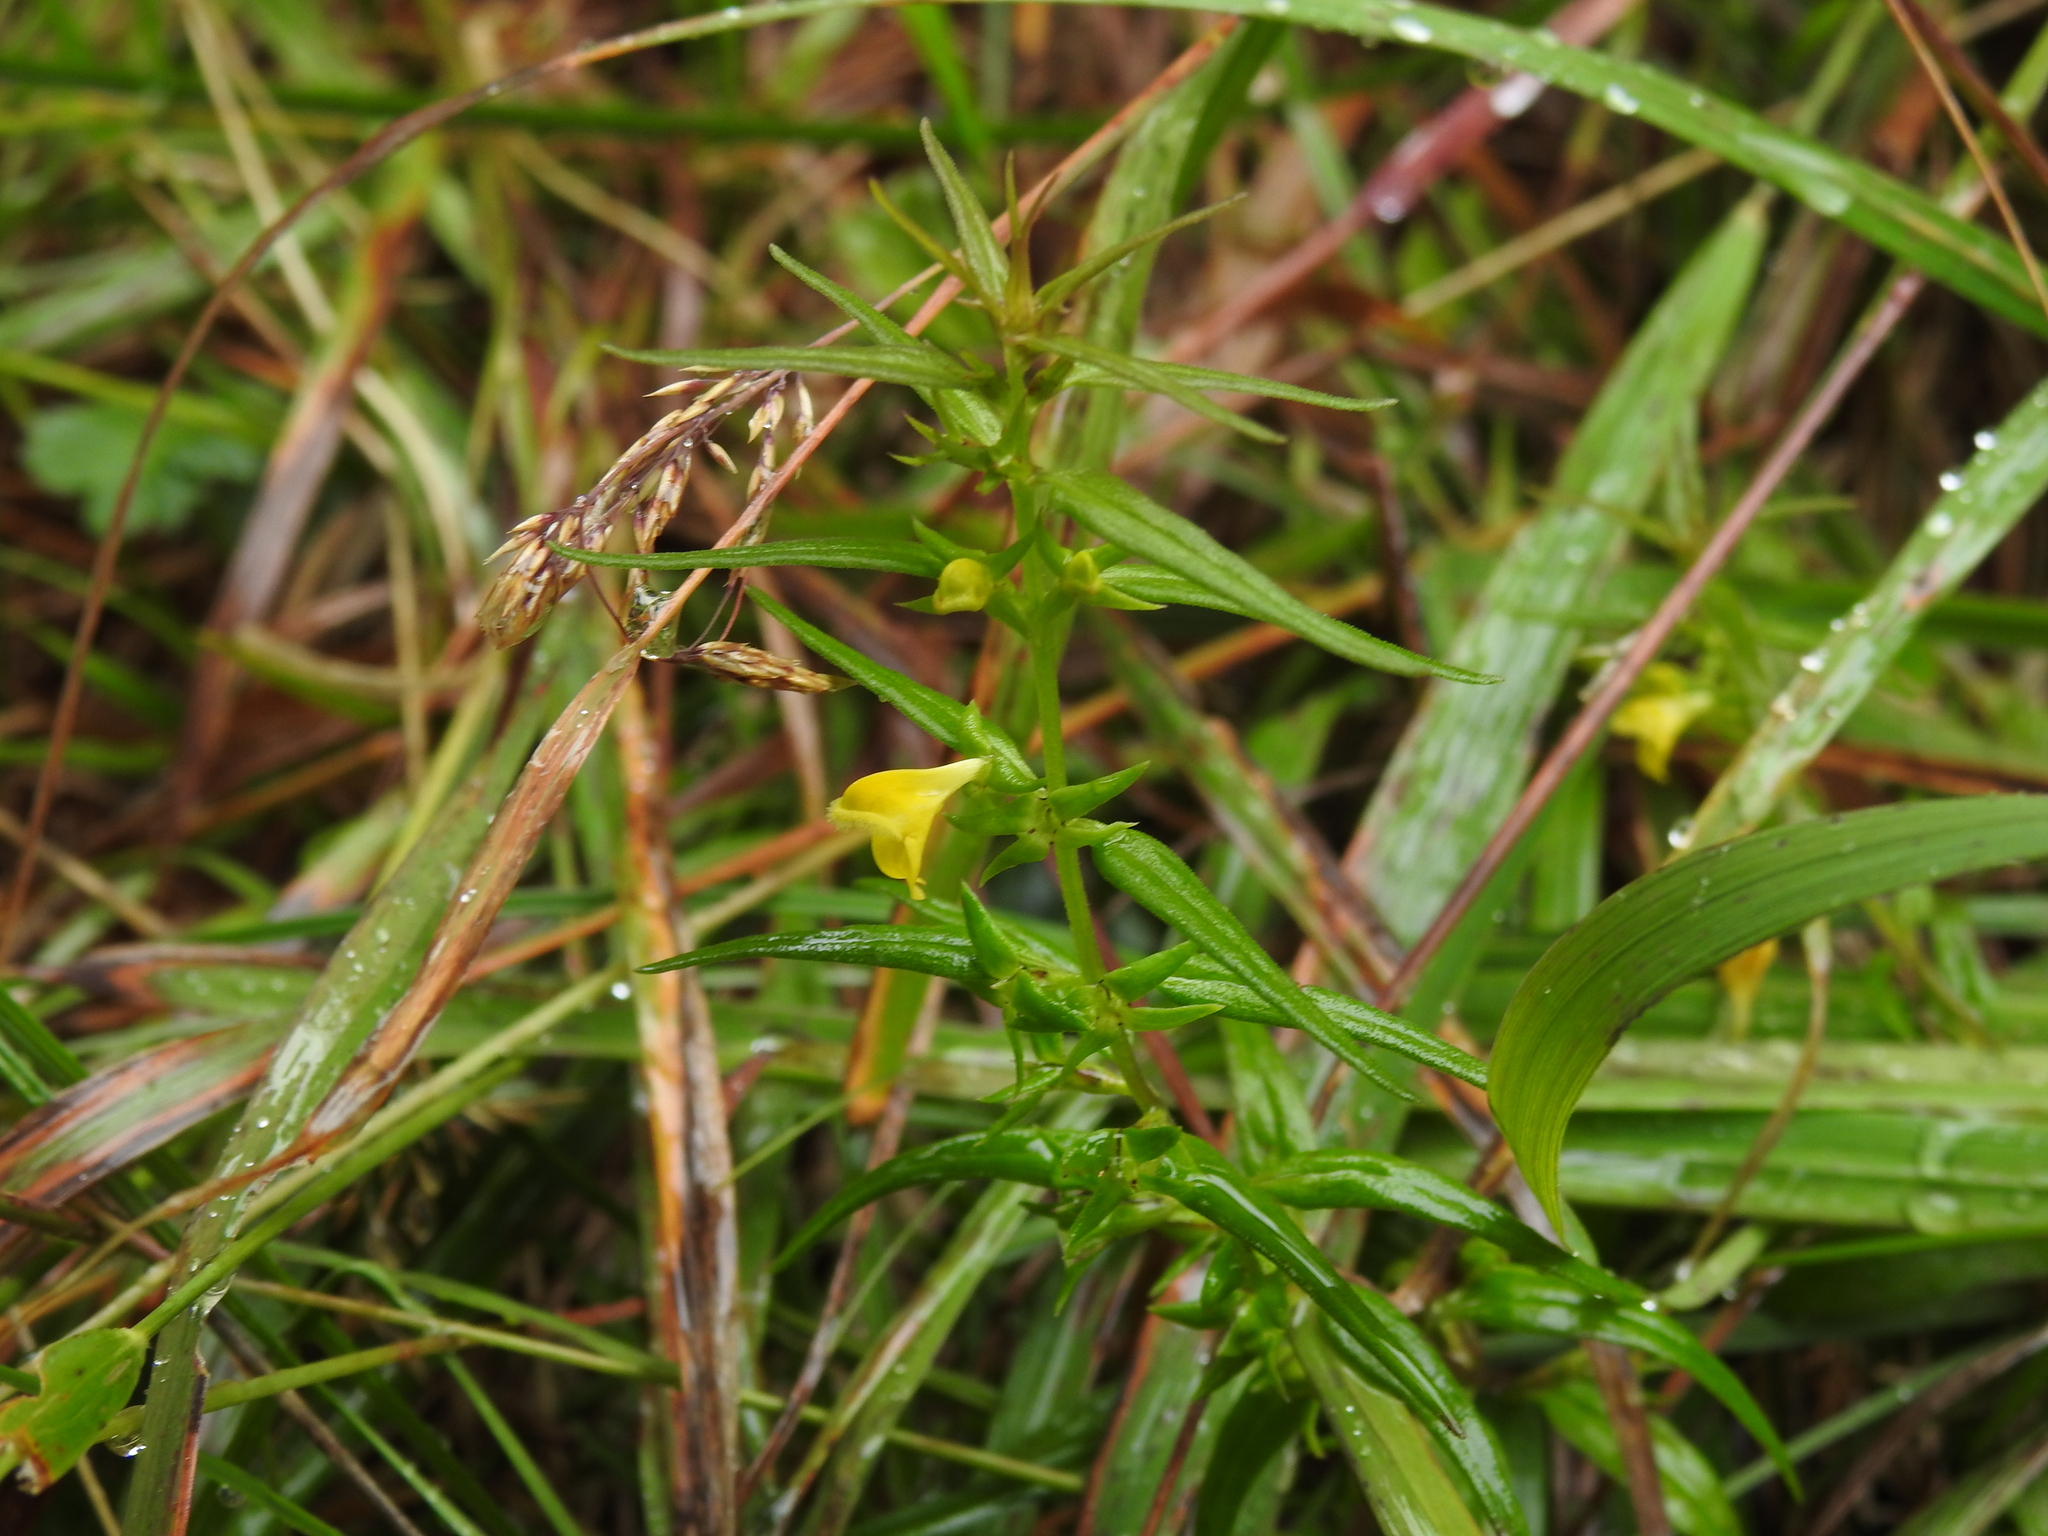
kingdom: Plantae
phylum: Tracheophyta
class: Magnoliopsida
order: Lamiales
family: Orobanchaceae
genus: Melampyrum
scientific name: Melampyrum sylvaticum
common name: Small cow-wheat
